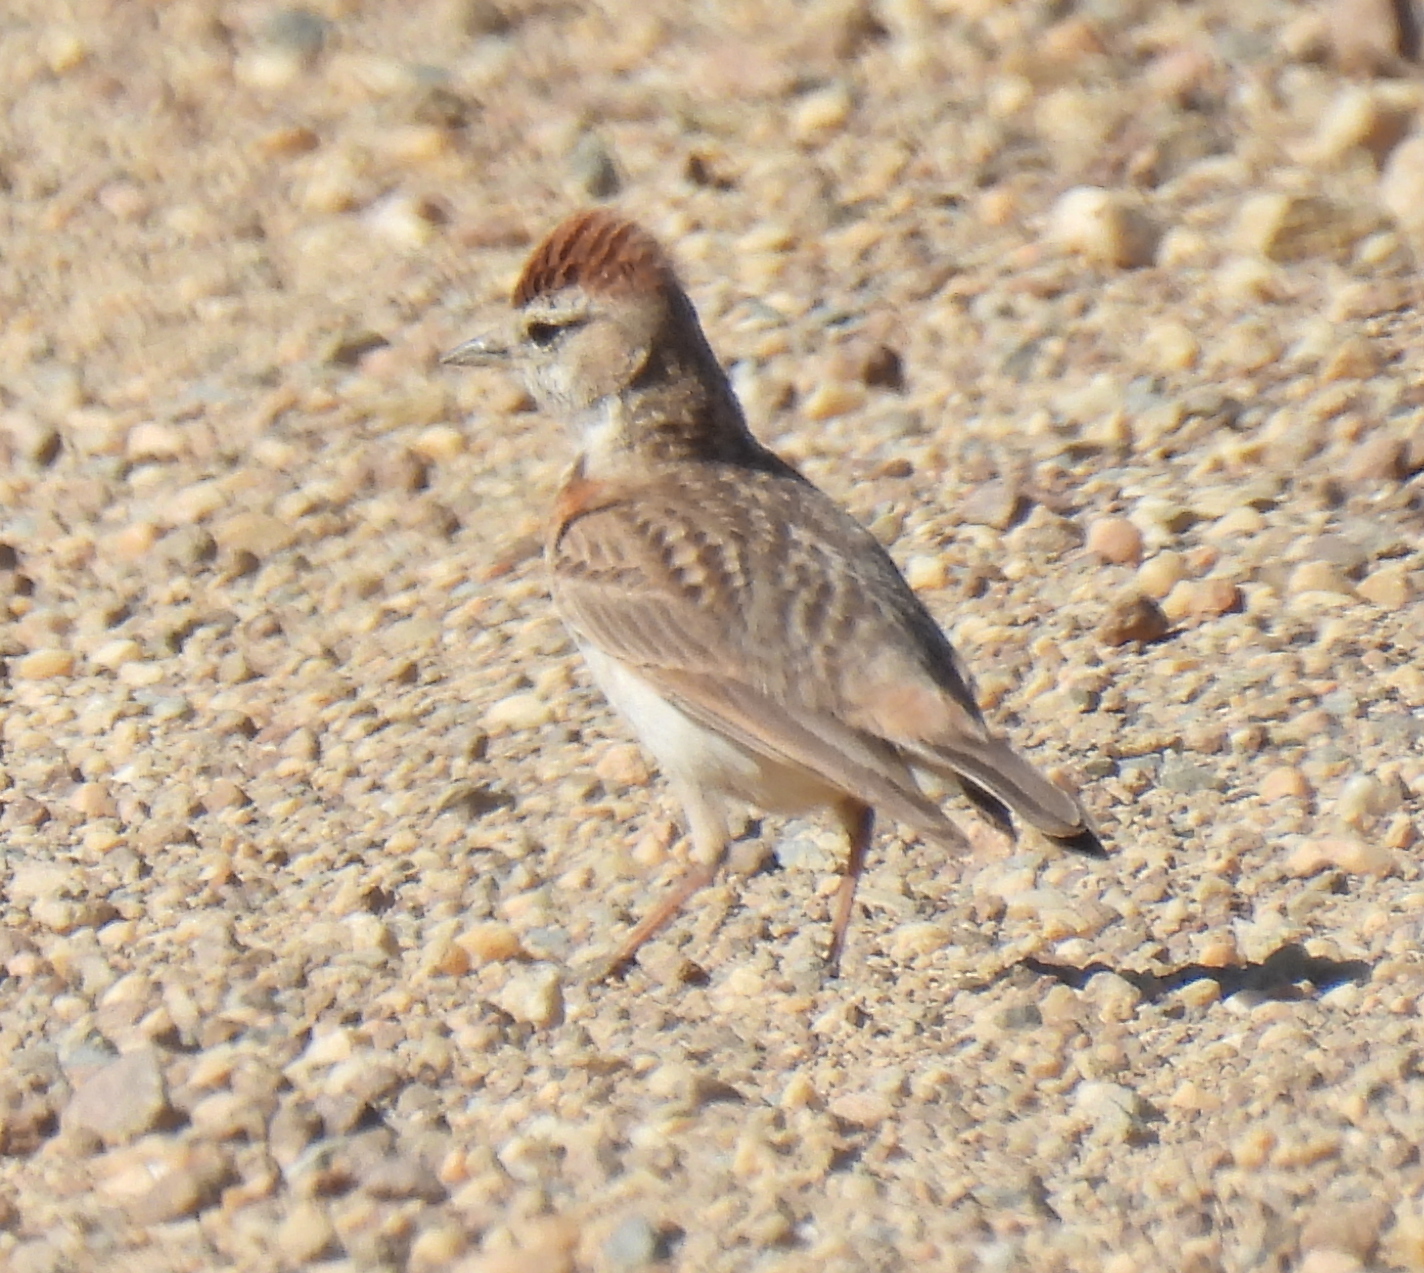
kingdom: Animalia
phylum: Chordata
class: Aves
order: Passeriformes
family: Alaudidae
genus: Calandrella
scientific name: Calandrella cinerea
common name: Red-capped lark
